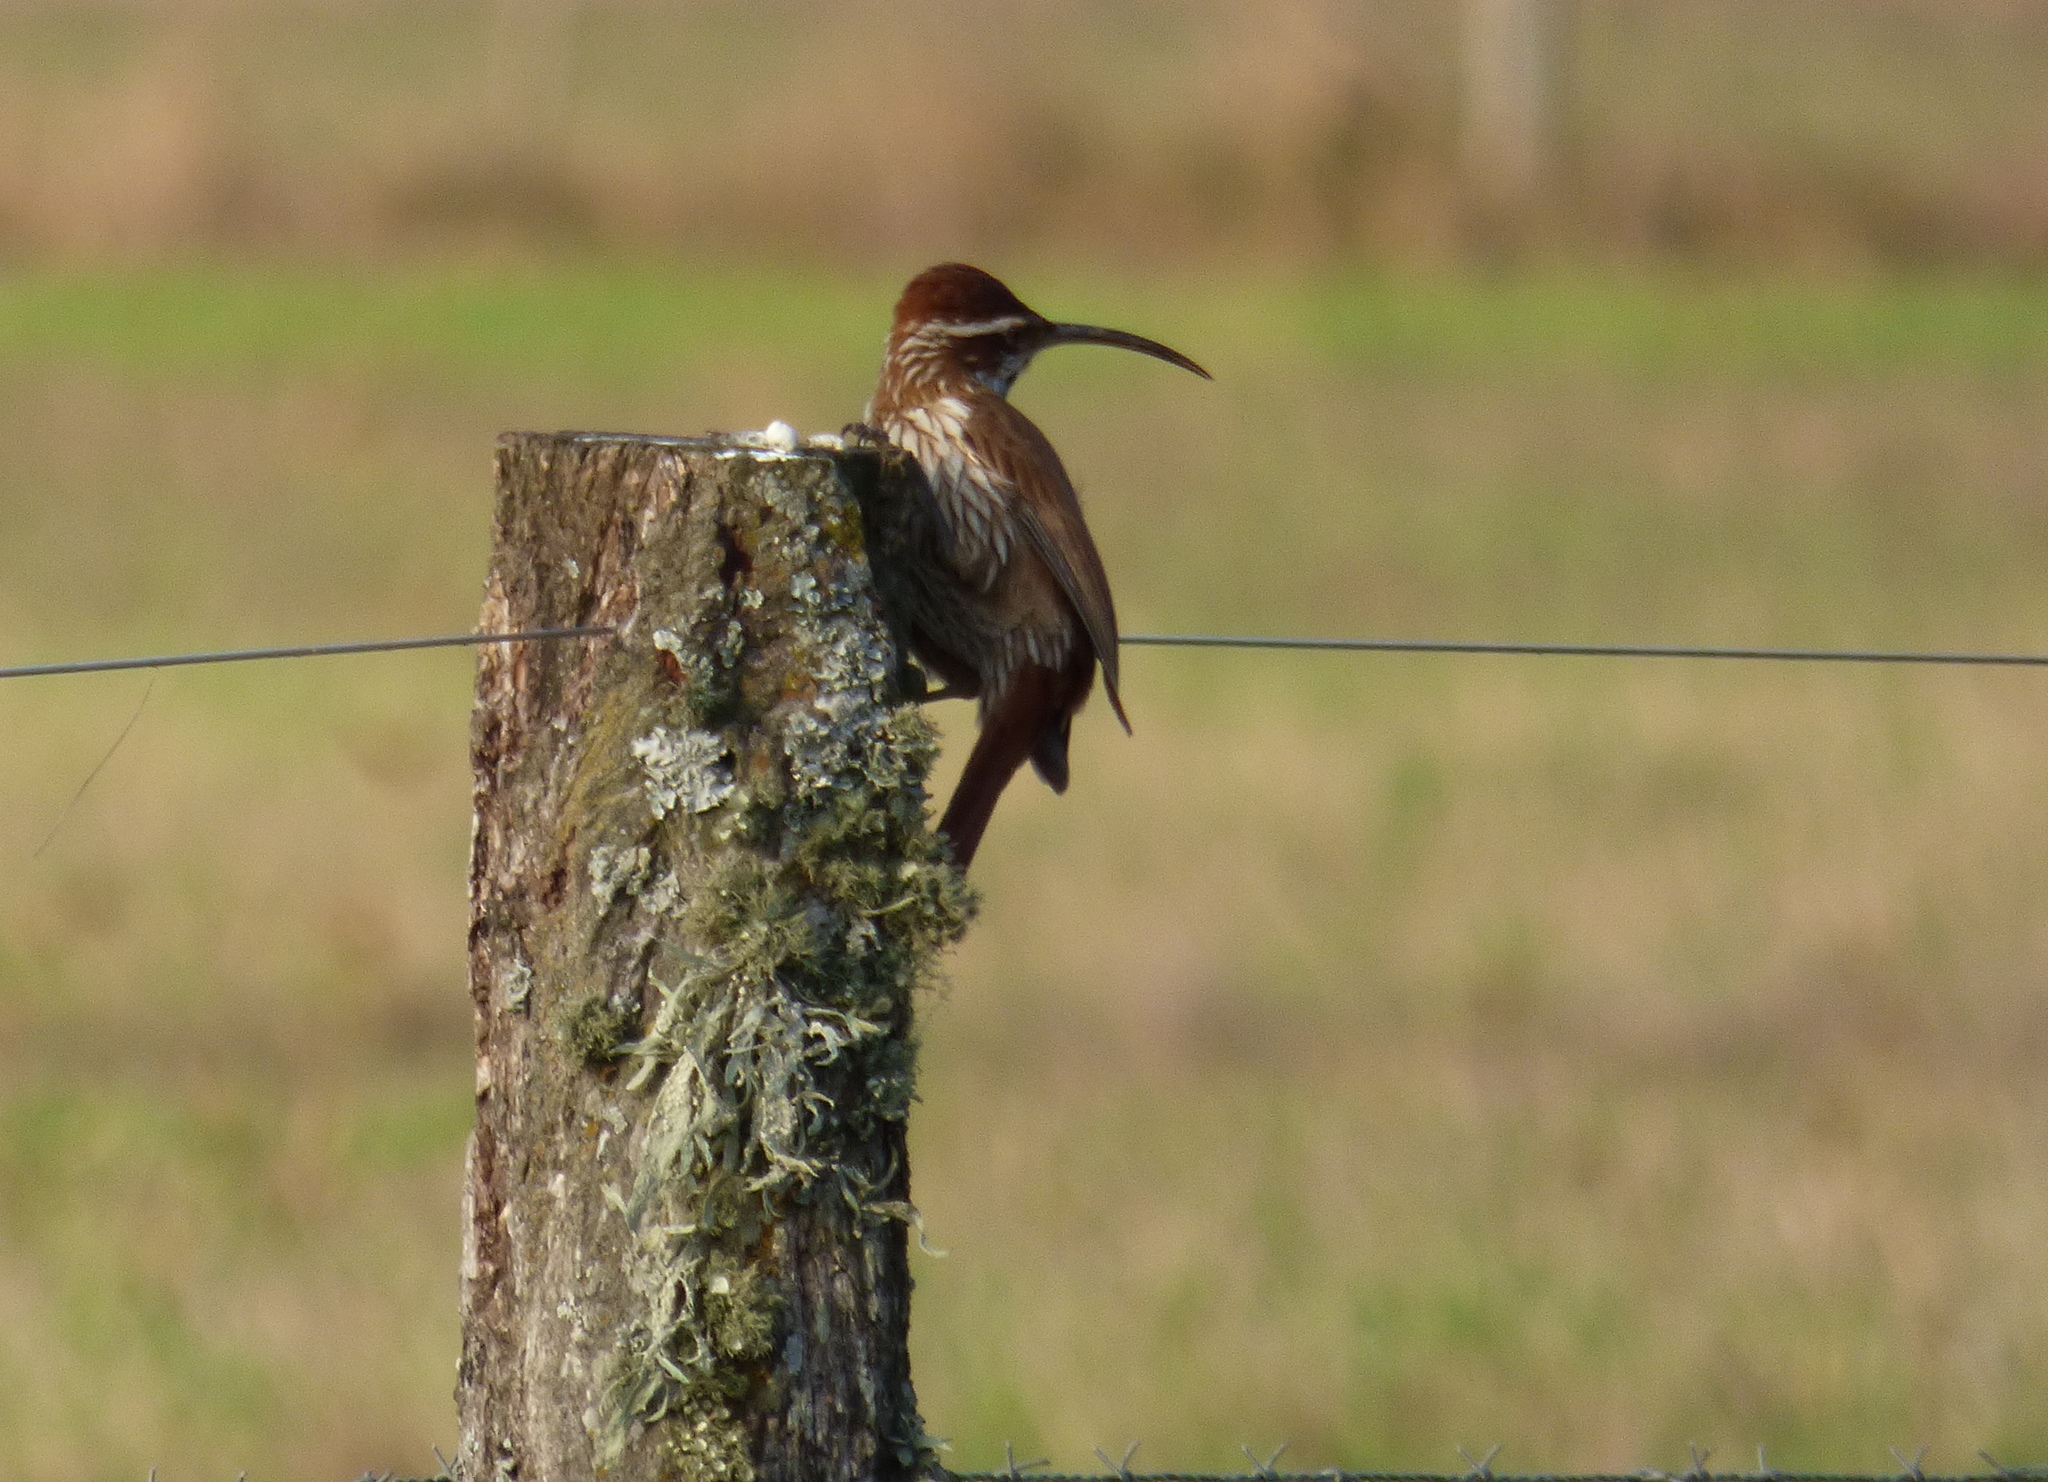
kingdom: Animalia
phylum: Chordata
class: Aves
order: Passeriformes
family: Furnariidae
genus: Drymornis
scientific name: Drymornis bridgesii
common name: Scimitar-billed woodcreeper
